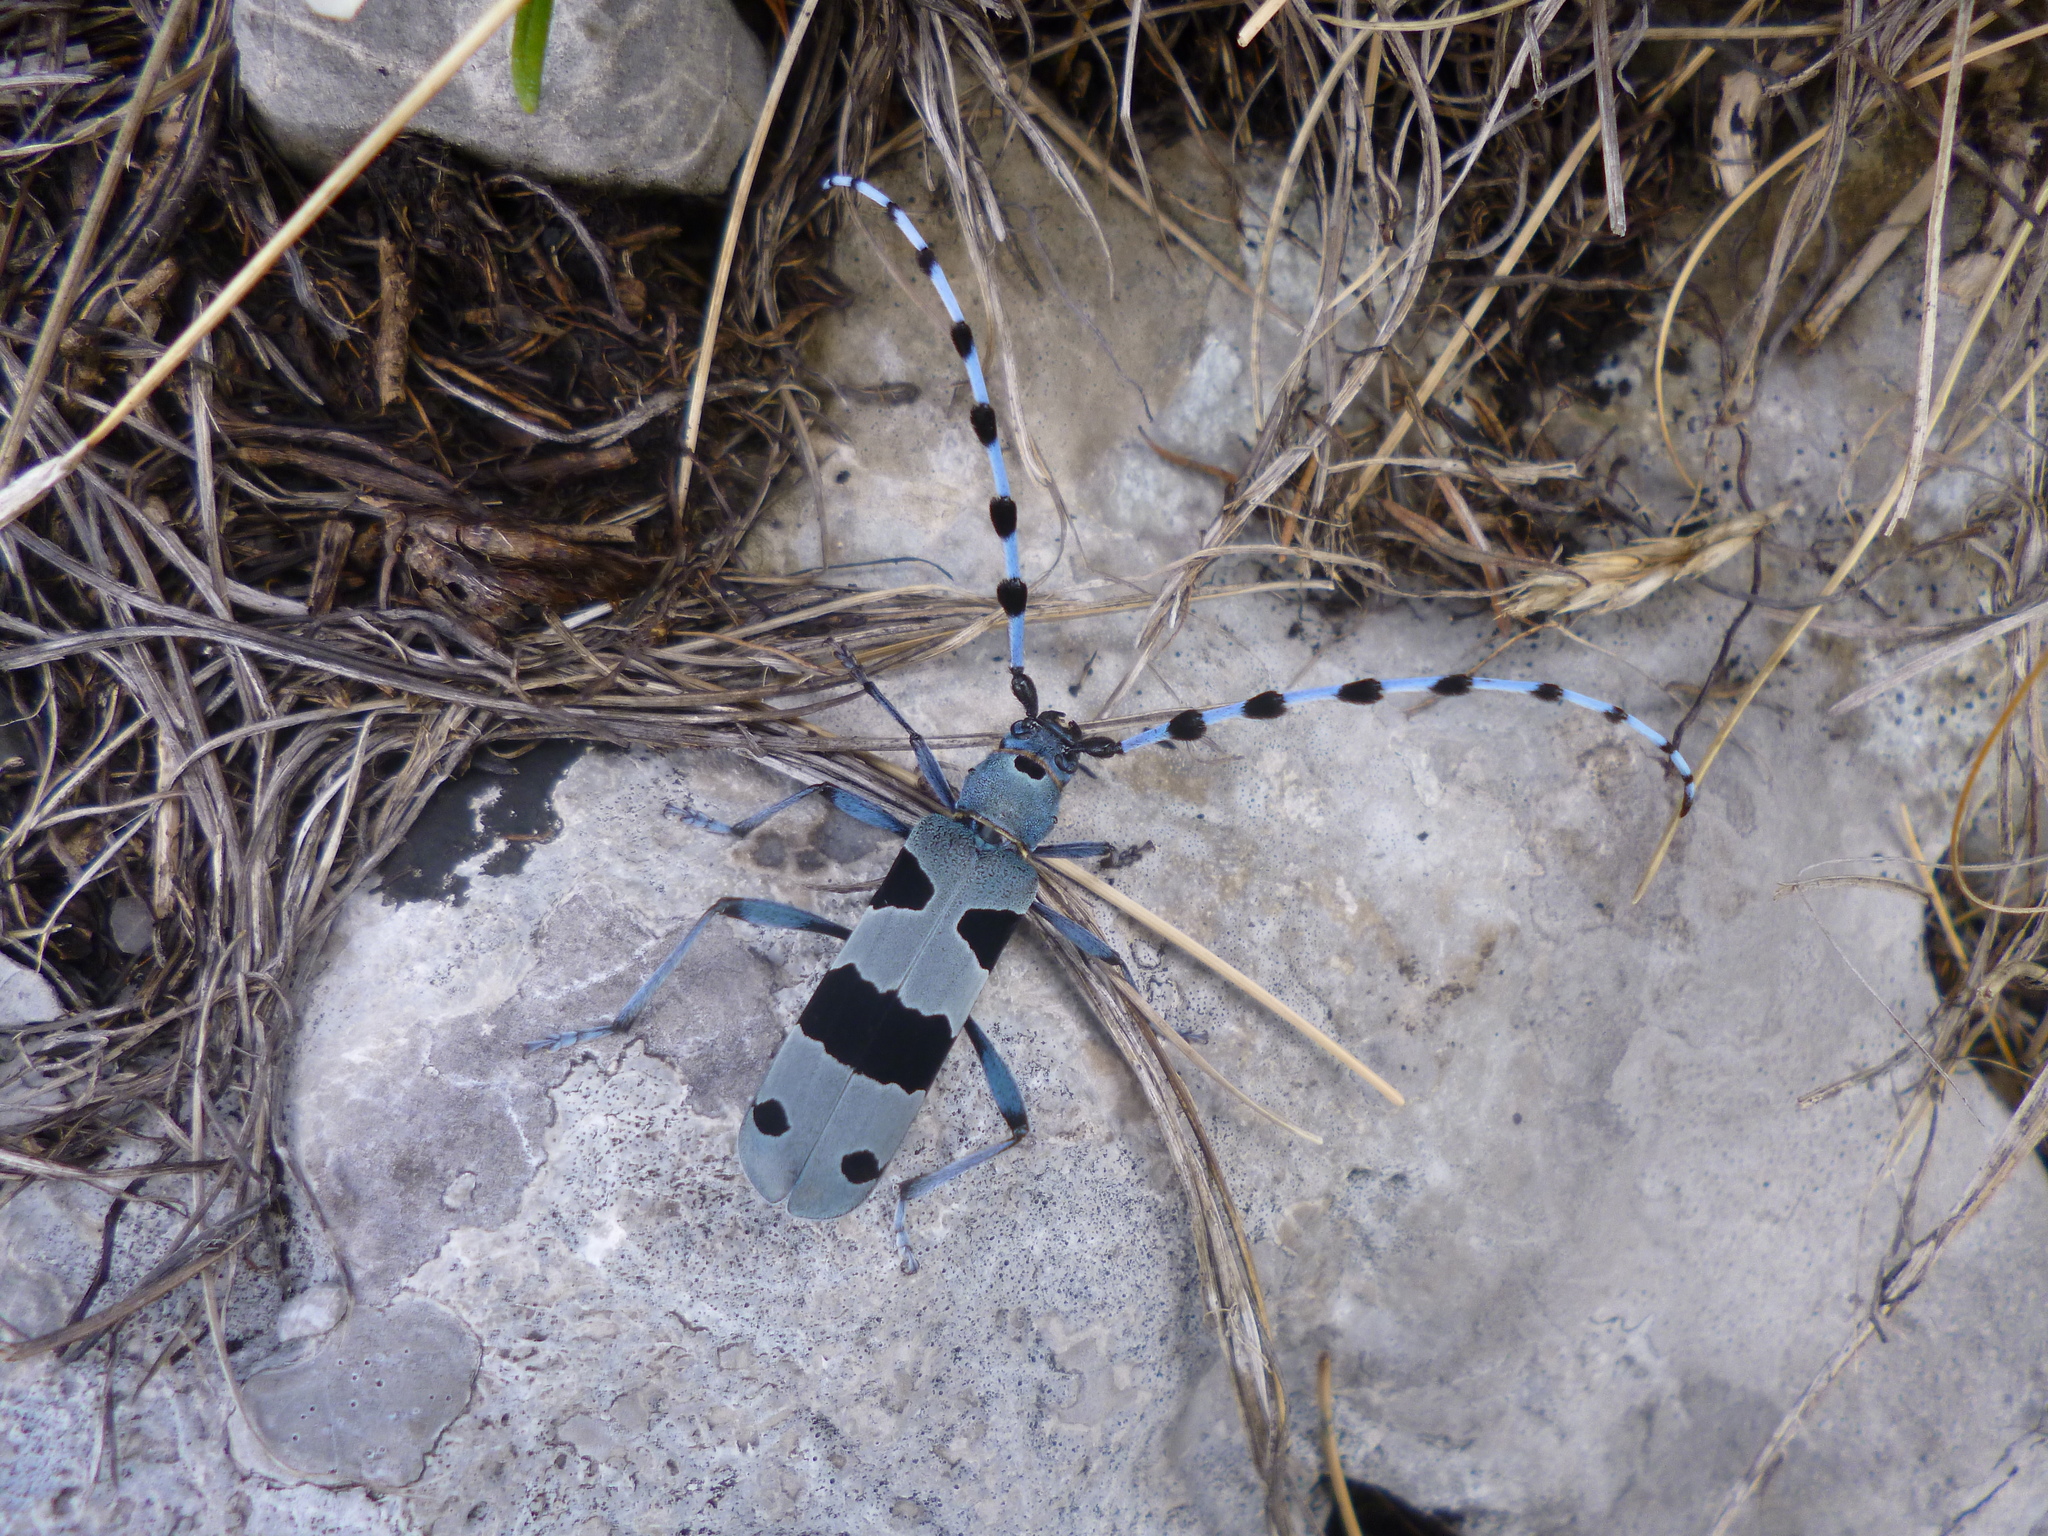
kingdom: Animalia
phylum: Arthropoda
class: Insecta
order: Coleoptera
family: Cerambycidae
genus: Rosalia
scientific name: Rosalia alpina
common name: Rosalia longicorn
